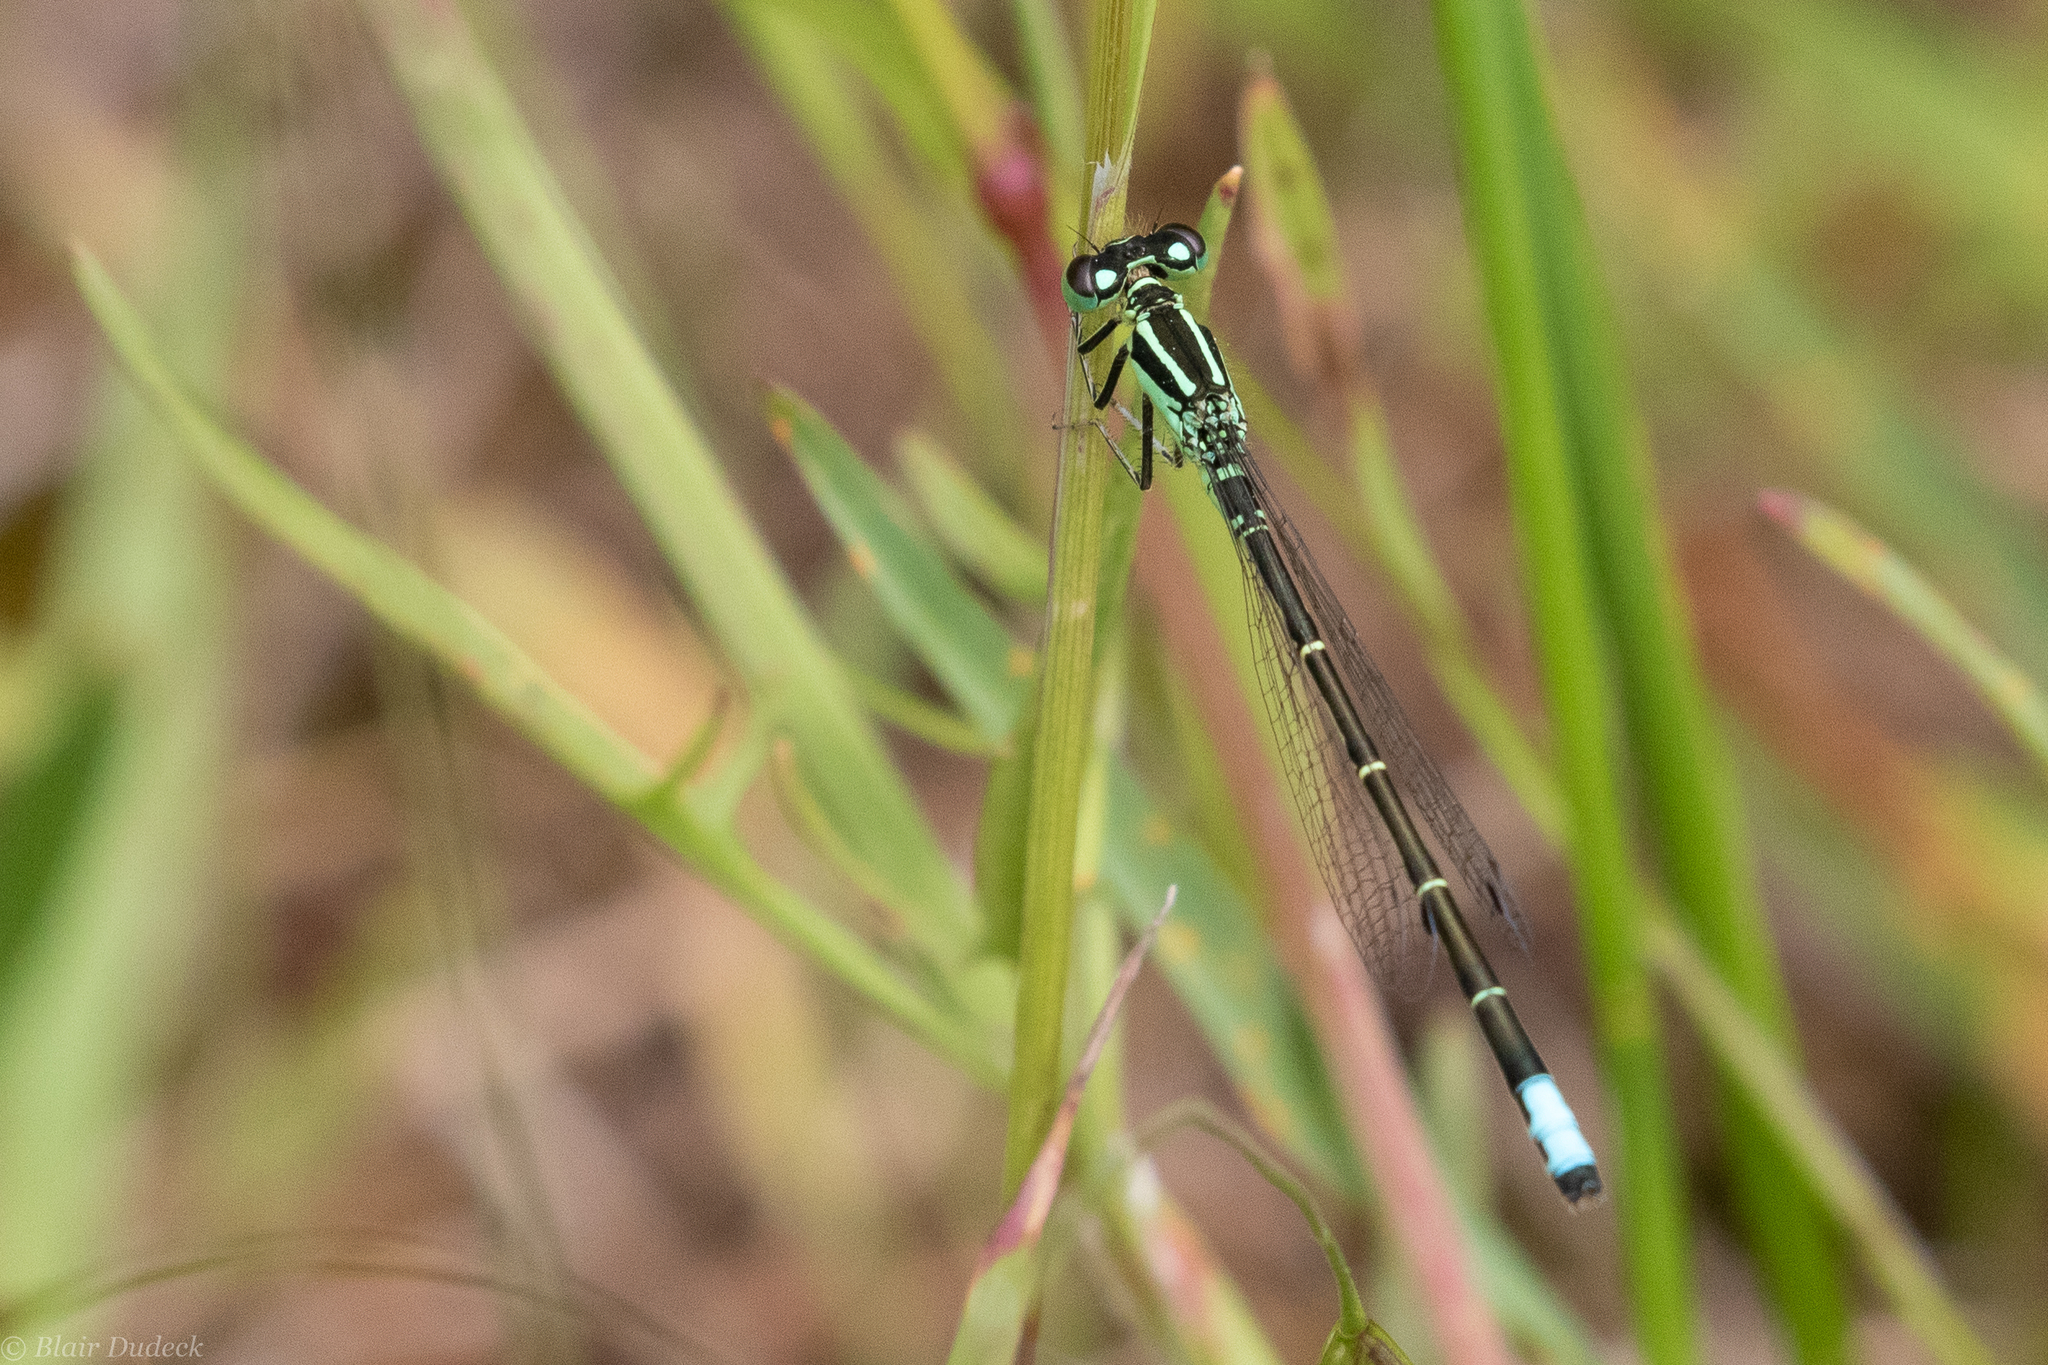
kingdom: Animalia
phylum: Arthropoda
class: Insecta
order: Odonata
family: Coenagrionidae
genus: Ischnura
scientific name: Ischnura perparva
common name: Western forktail
